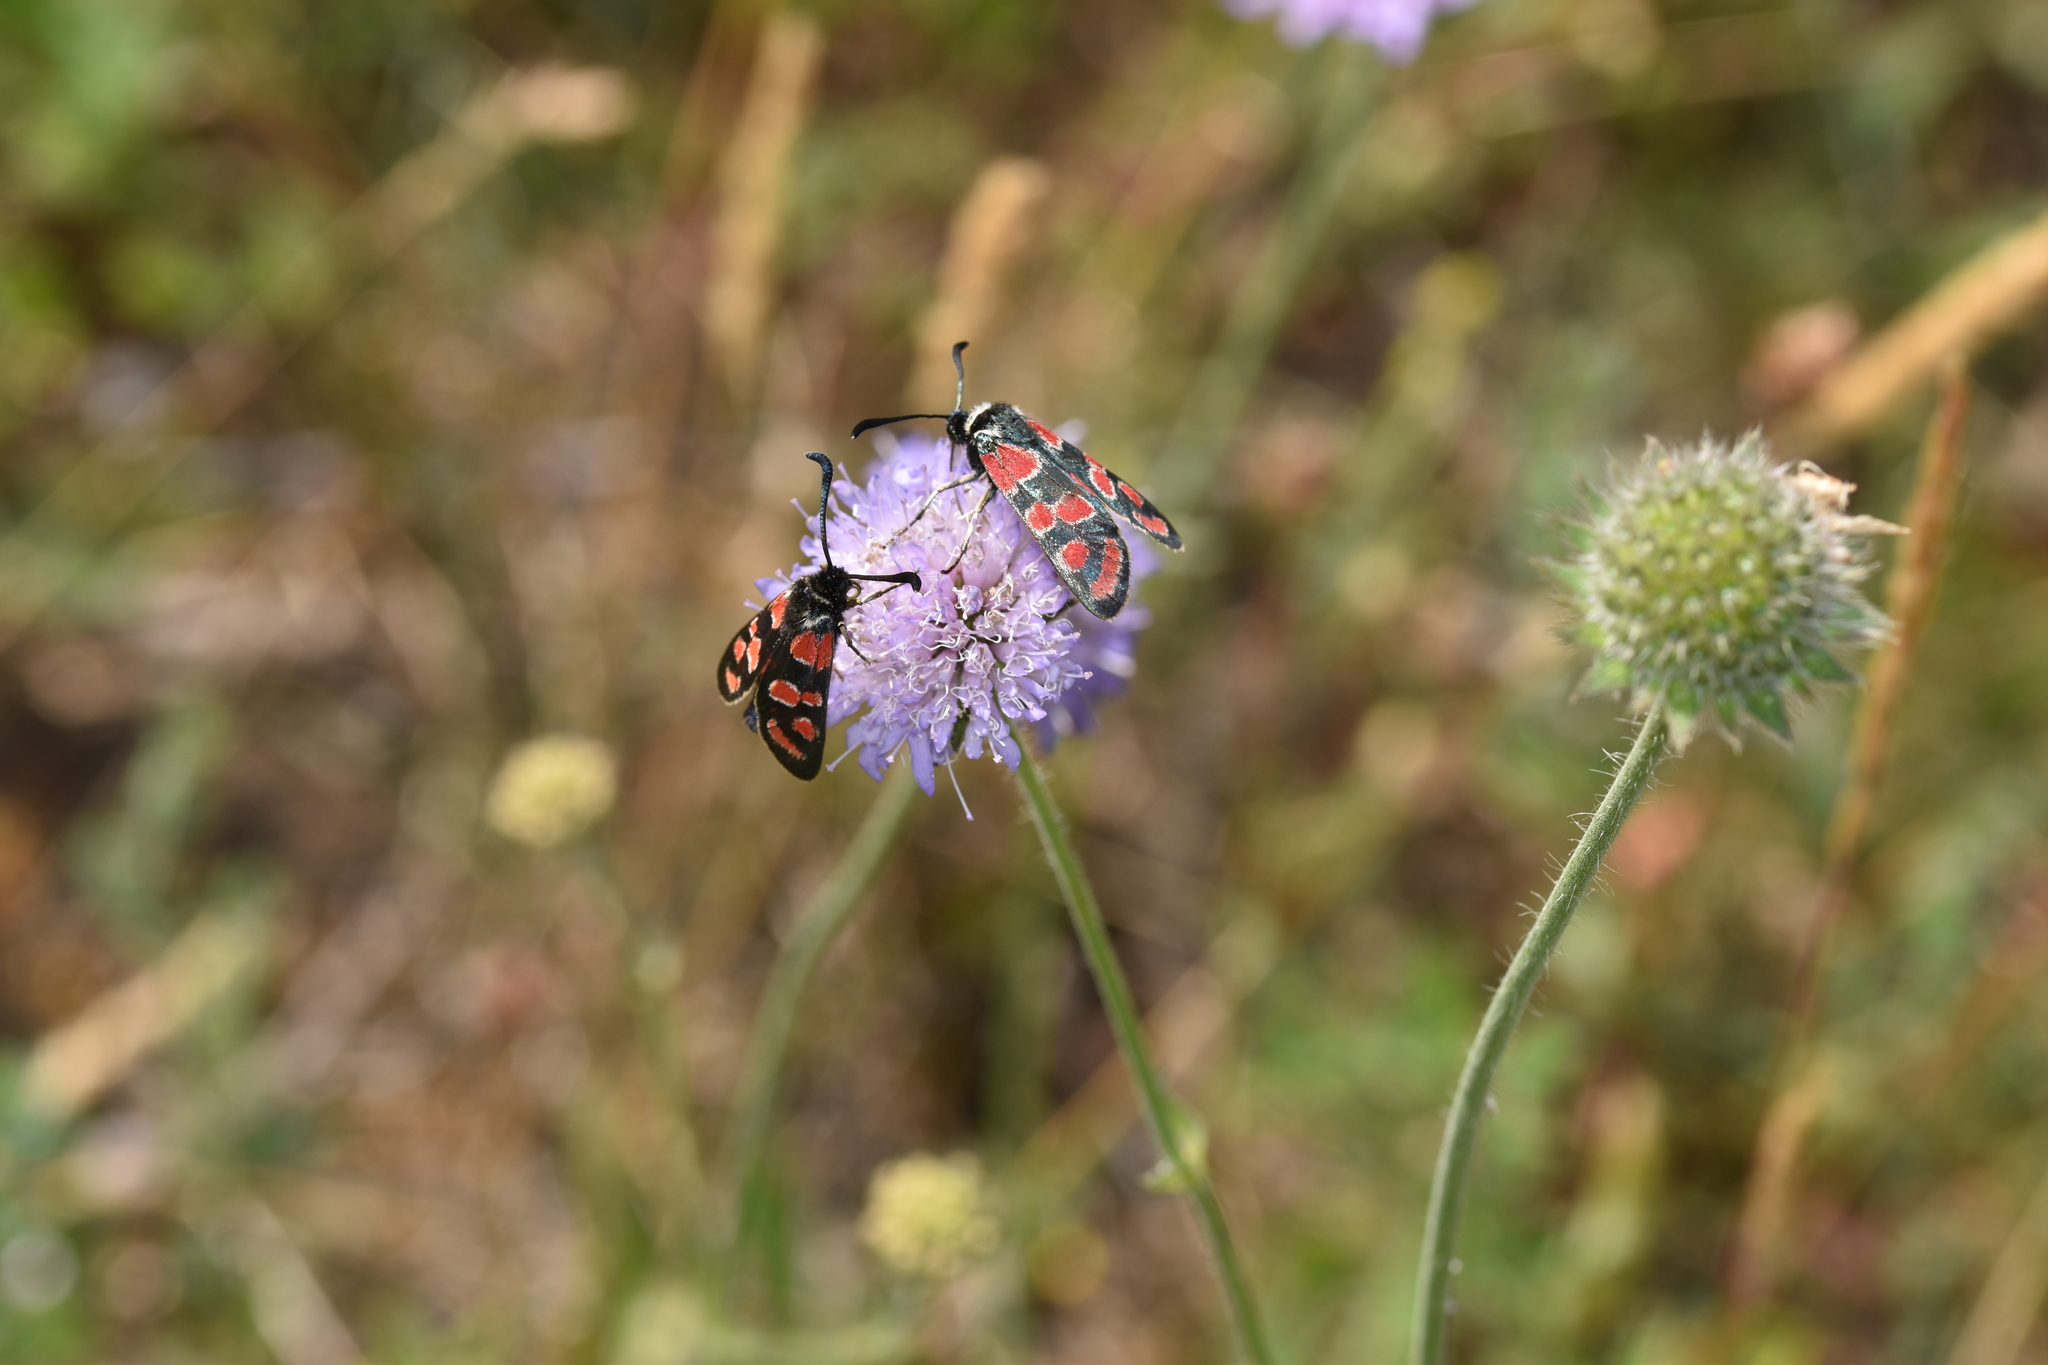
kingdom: Animalia
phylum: Arthropoda
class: Insecta
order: Lepidoptera
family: Zygaenidae
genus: Zygaena
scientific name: Zygaena carniolica
